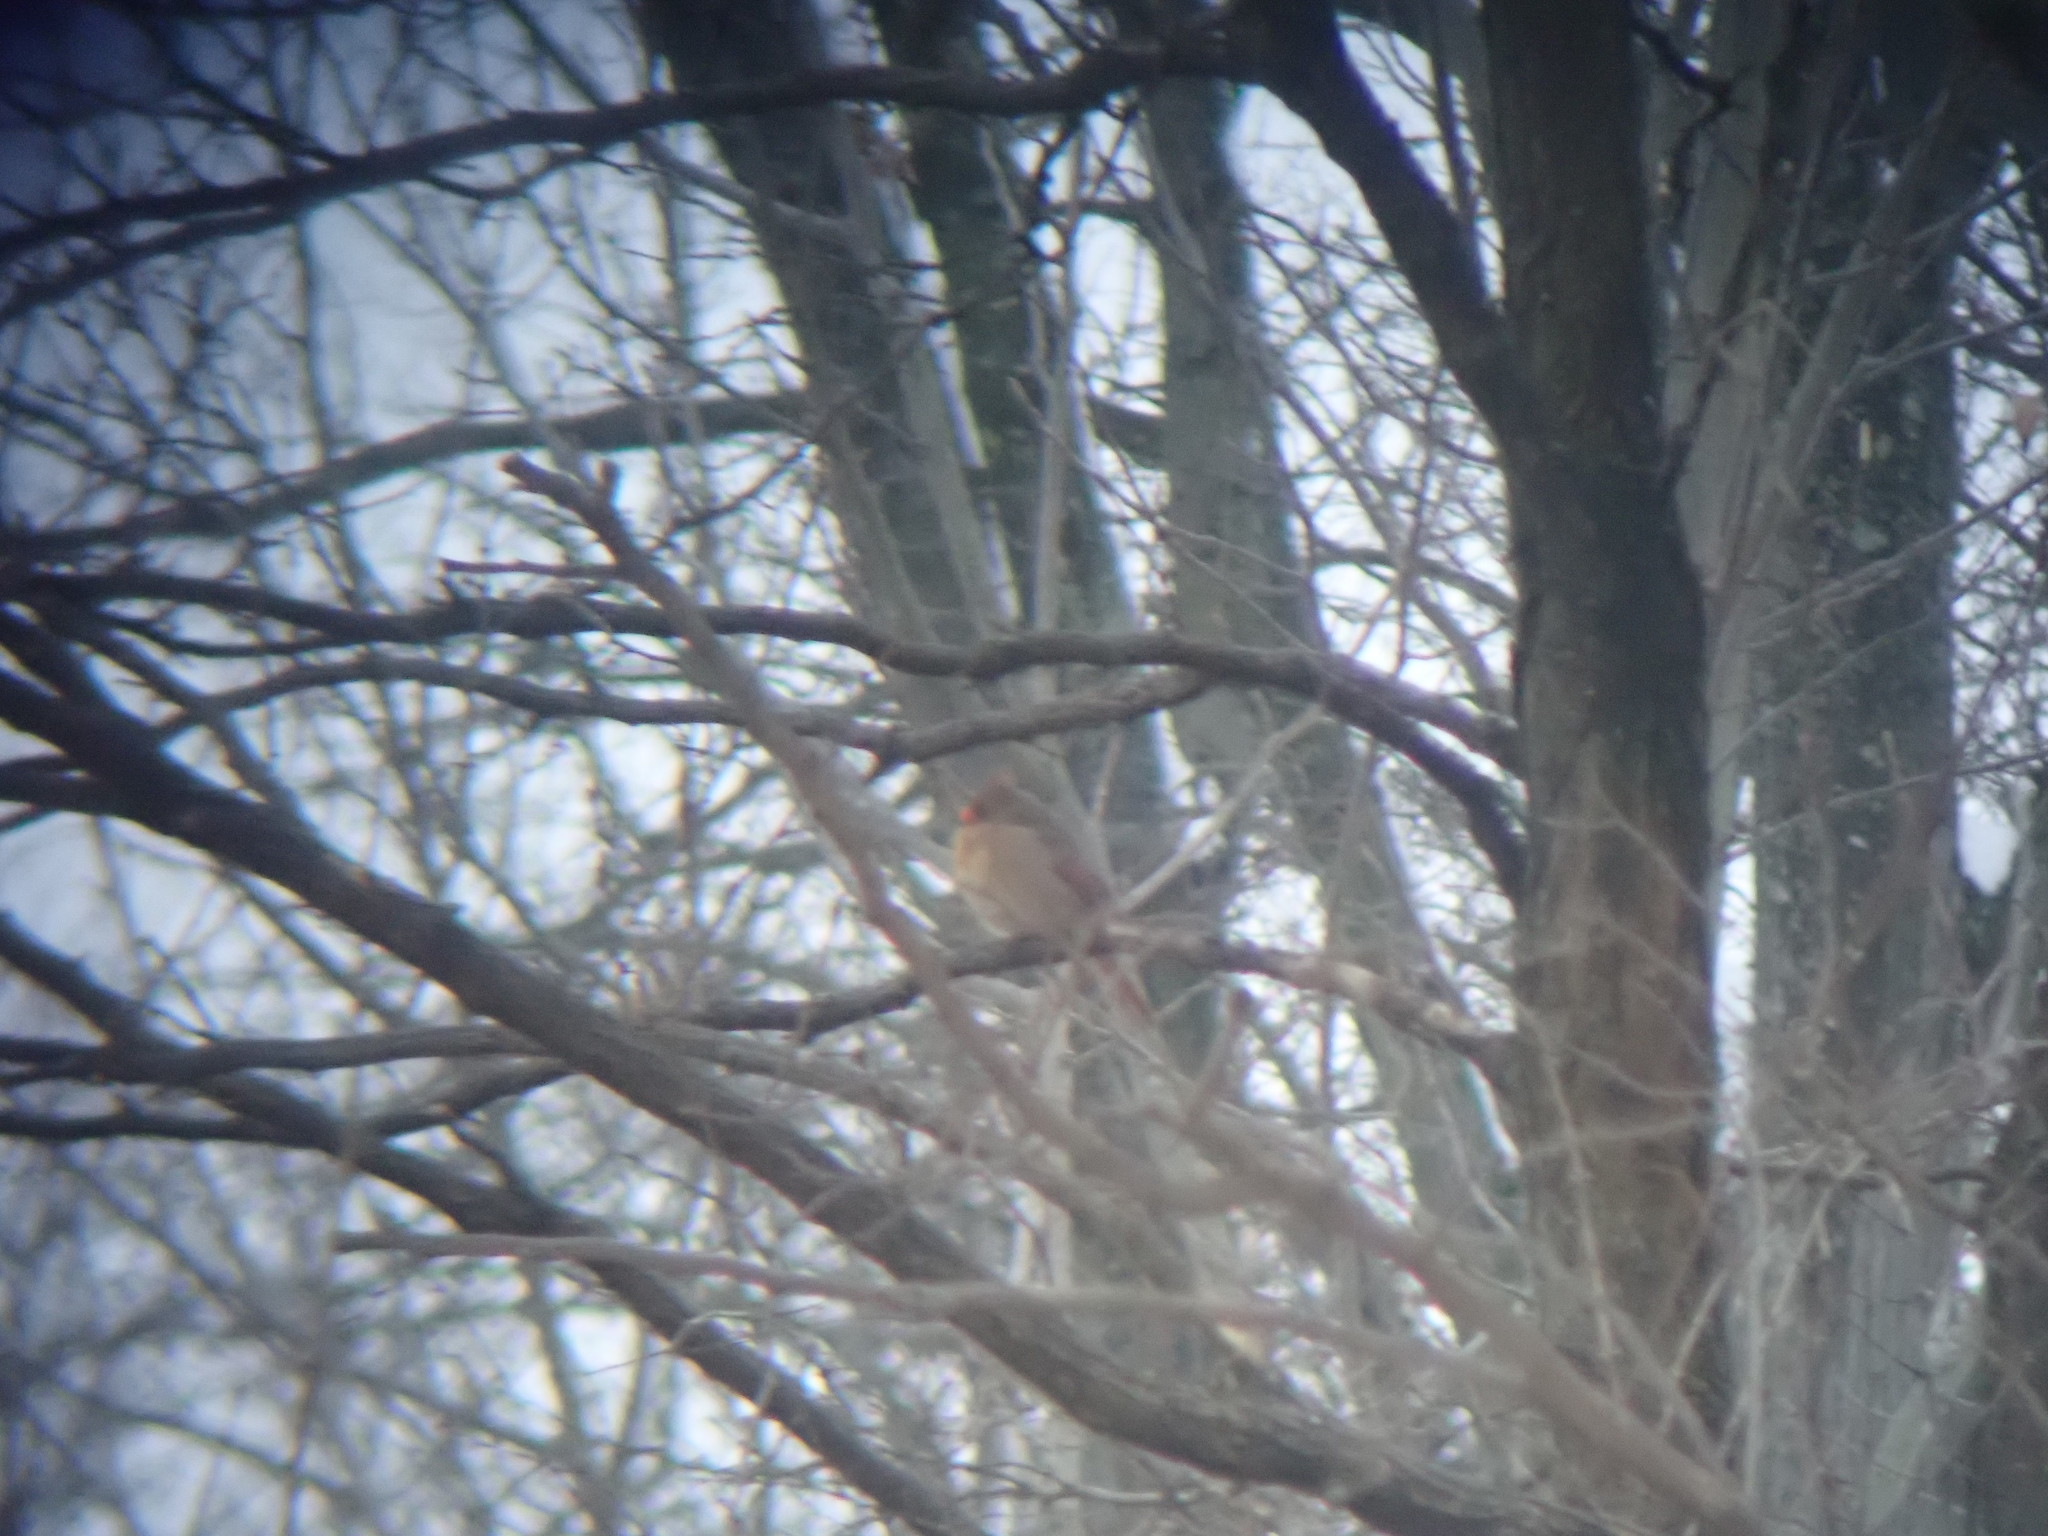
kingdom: Animalia
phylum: Chordata
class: Aves
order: Passeriformes
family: Cardinalidae
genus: Cardinalis
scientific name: Cardinalis cardinalis
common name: Northern cardinal
